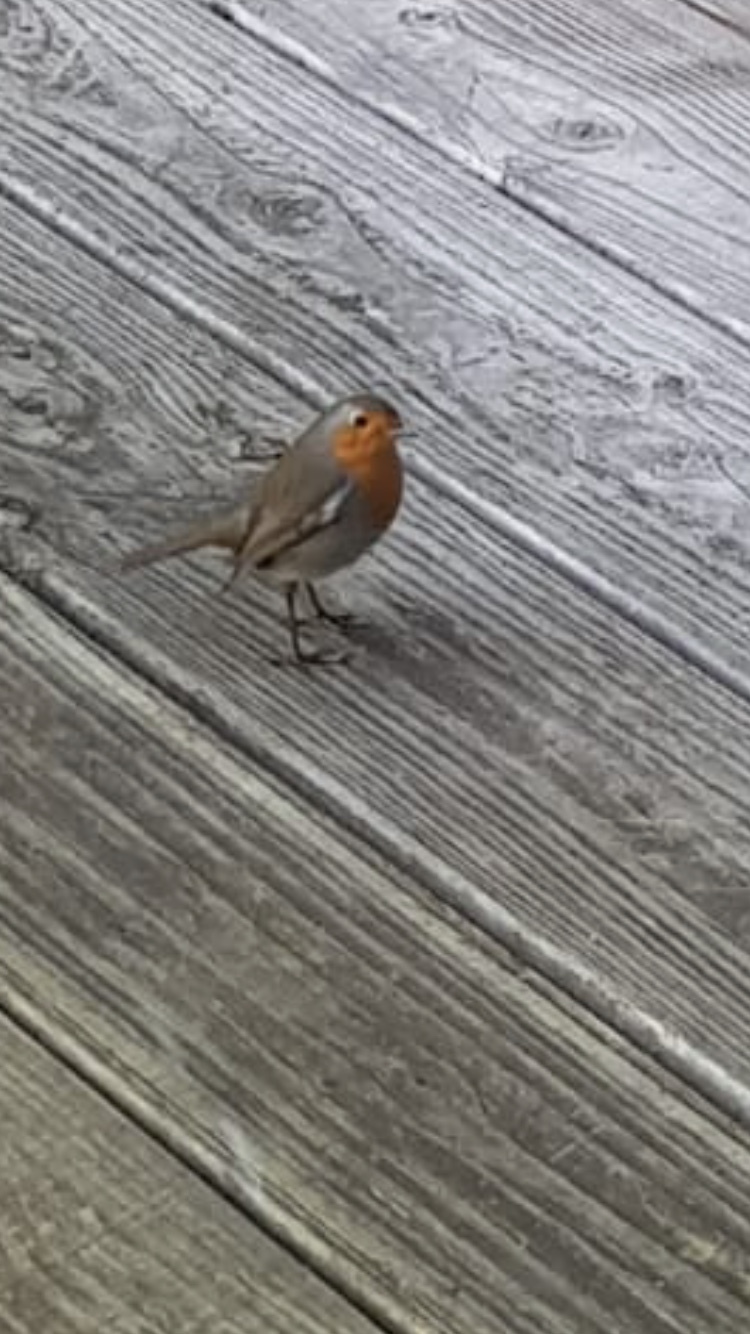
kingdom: Animalia
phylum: Chordata
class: Aves
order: Passeriformes
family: Muscicapidae
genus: Erithacus
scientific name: Erithacus rubecula
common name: European robin
